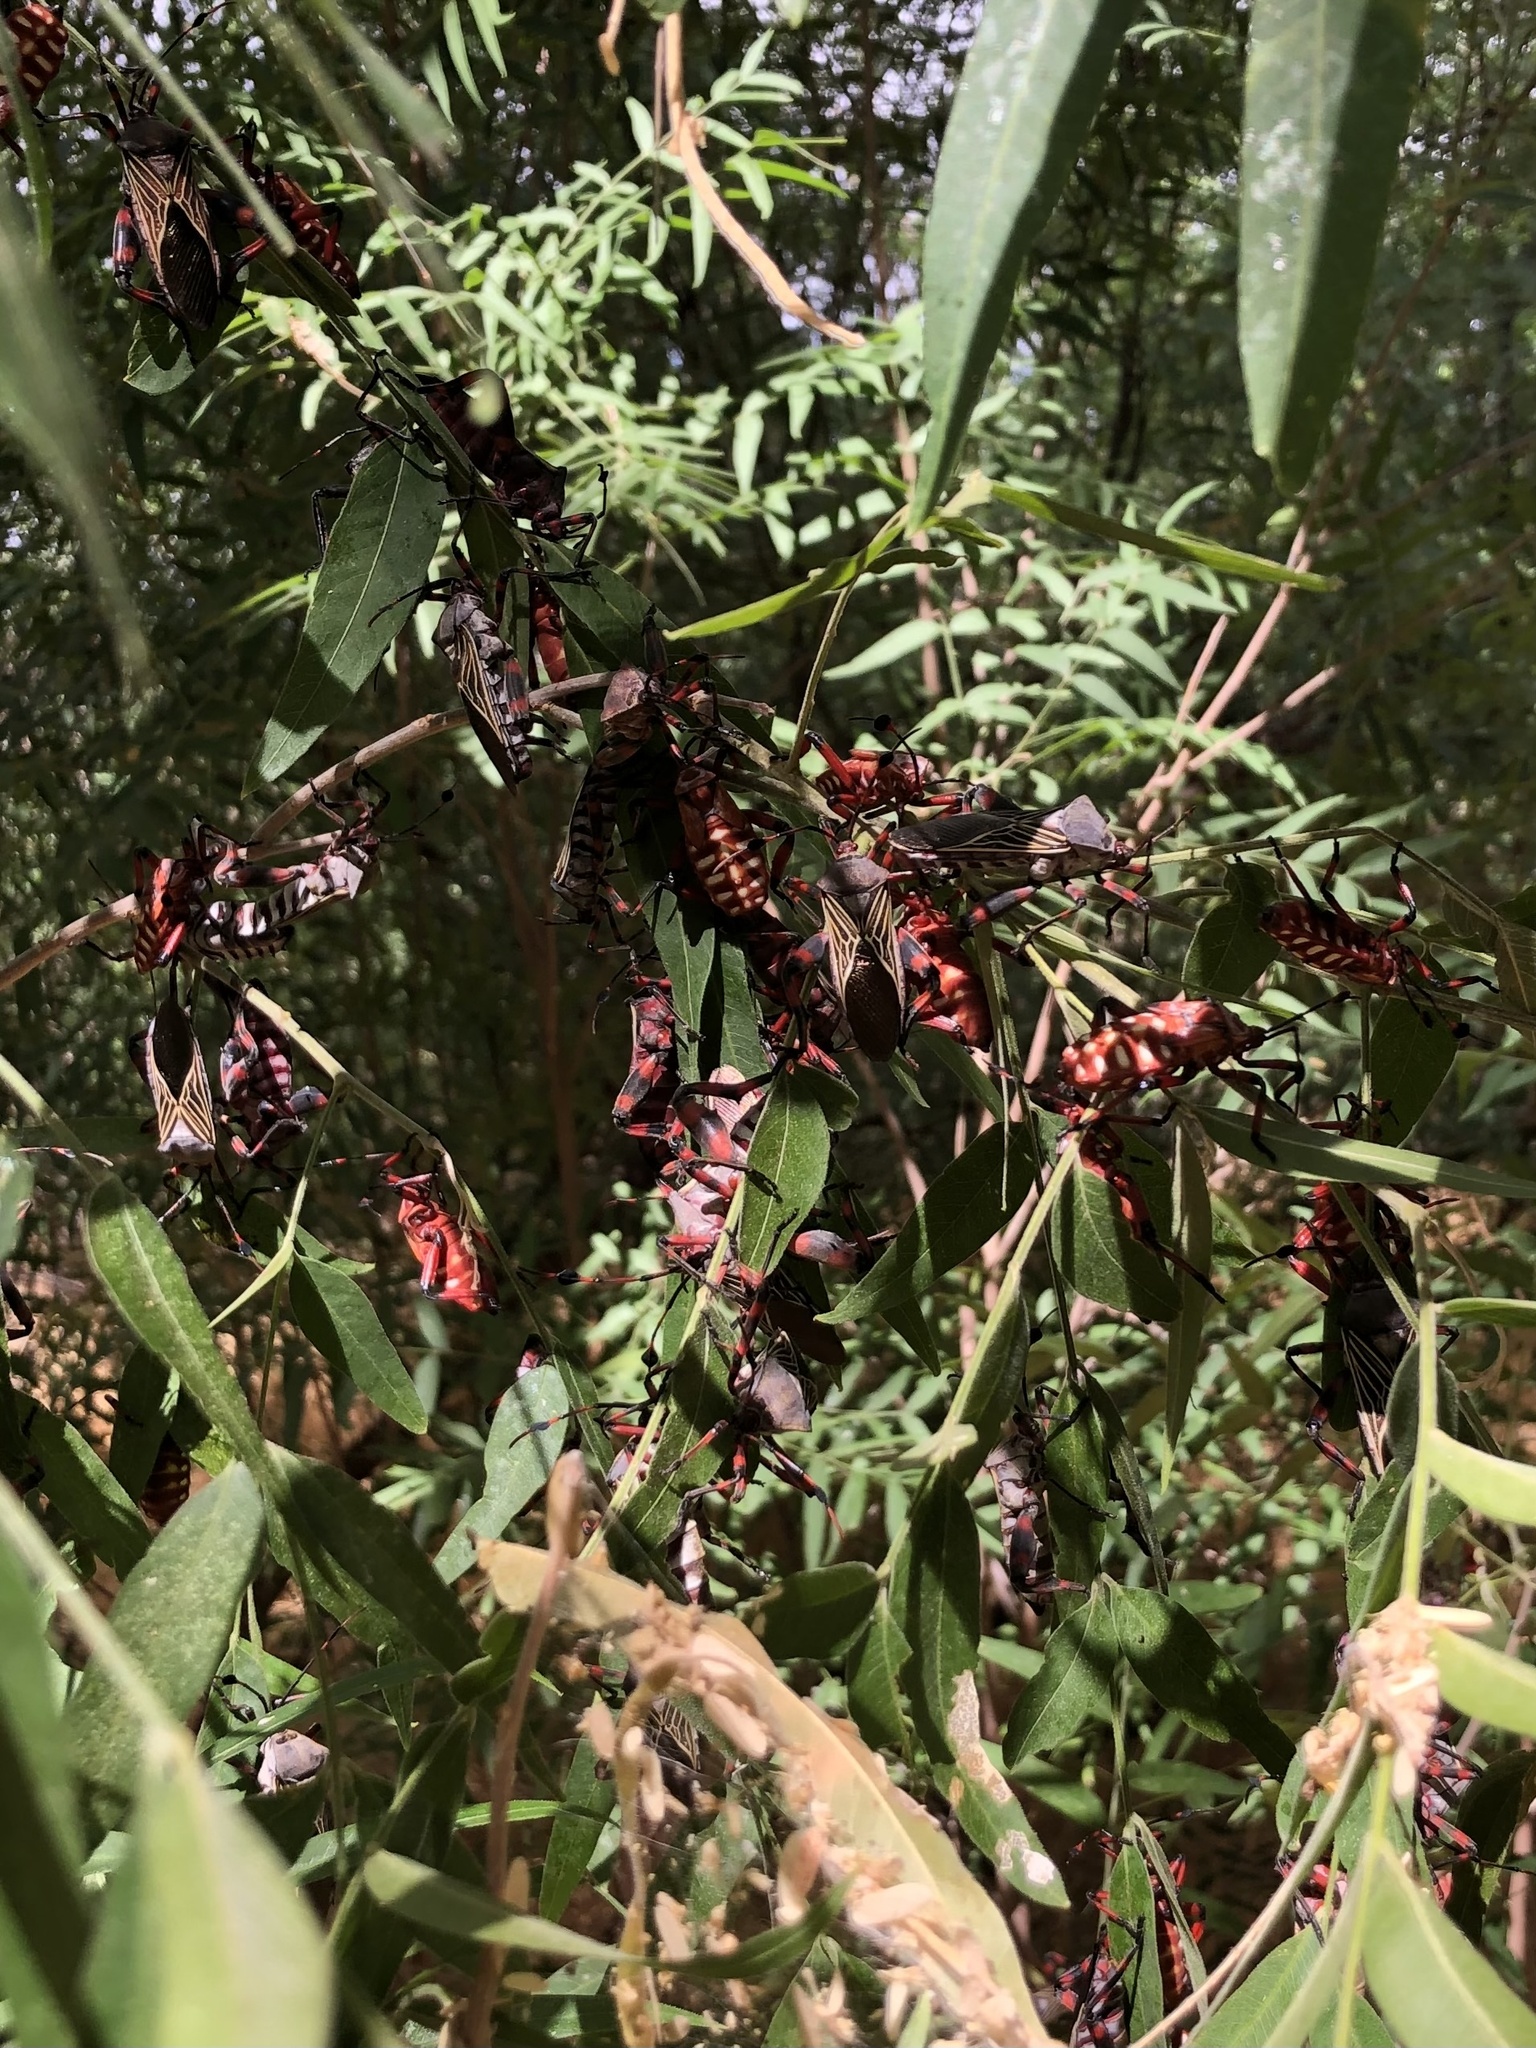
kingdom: Animalia
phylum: Arthropoda
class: Insecta
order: Hemiptera
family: Coreidae
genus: Thasus
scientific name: Thasus neocalifornicus
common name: Giant mesquite bug
